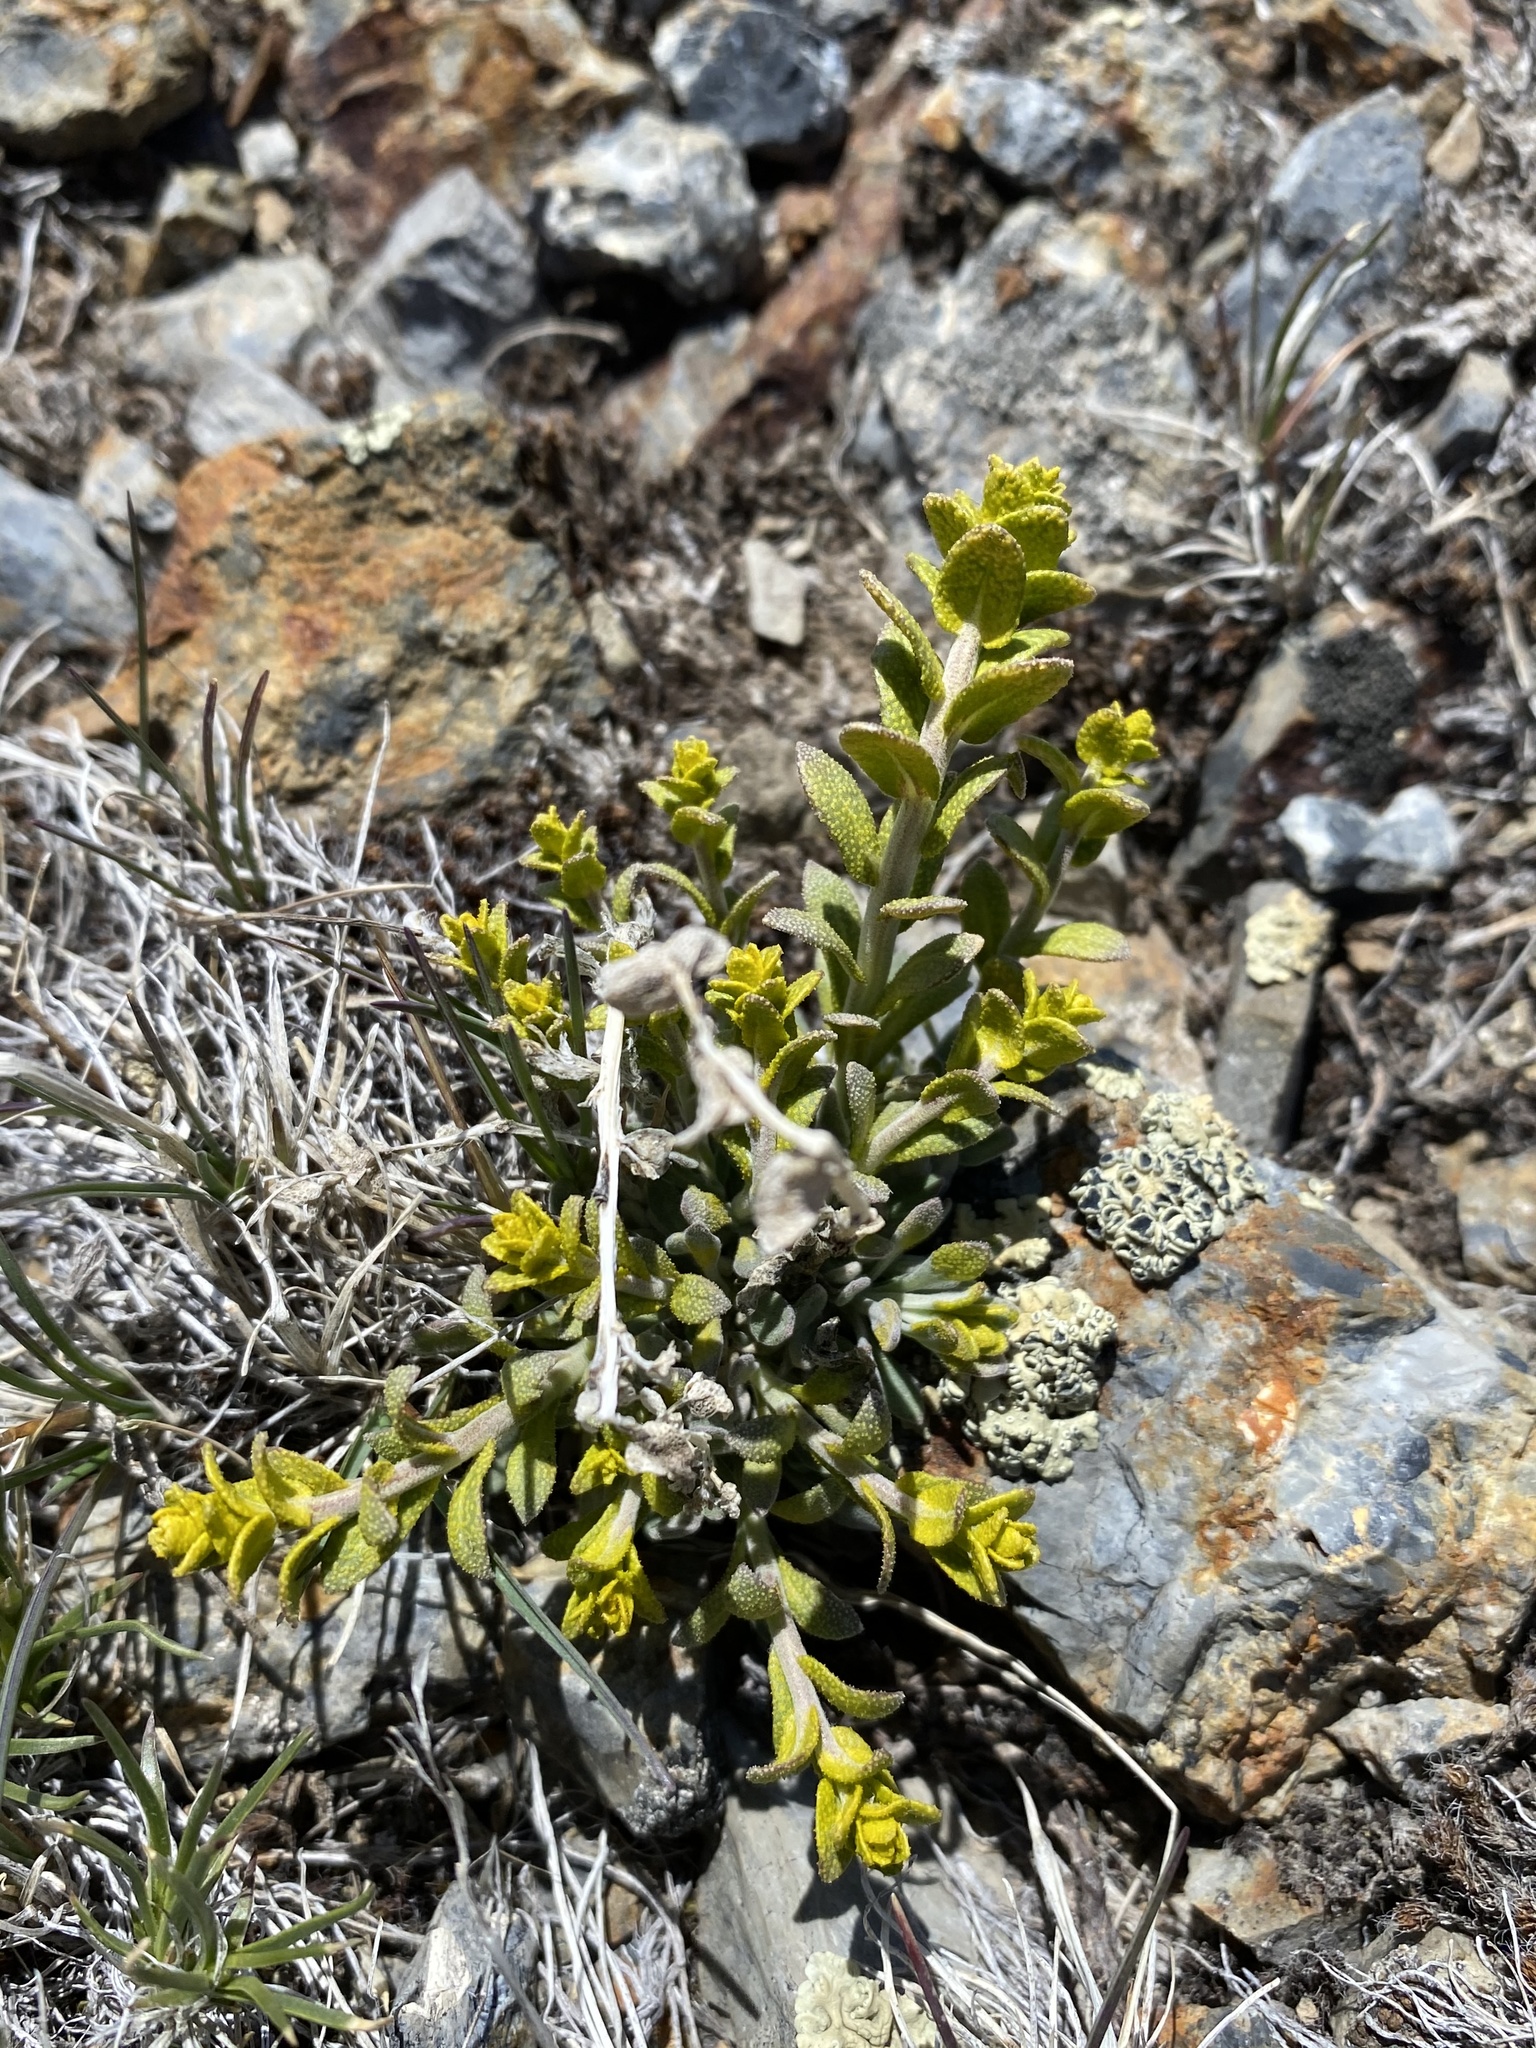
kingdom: Fungi
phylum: Basidiomycota
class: Pucciniomycetes
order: Pucciniales
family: Pucciniaceae
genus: Puccinia
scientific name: Puccinia monoica
